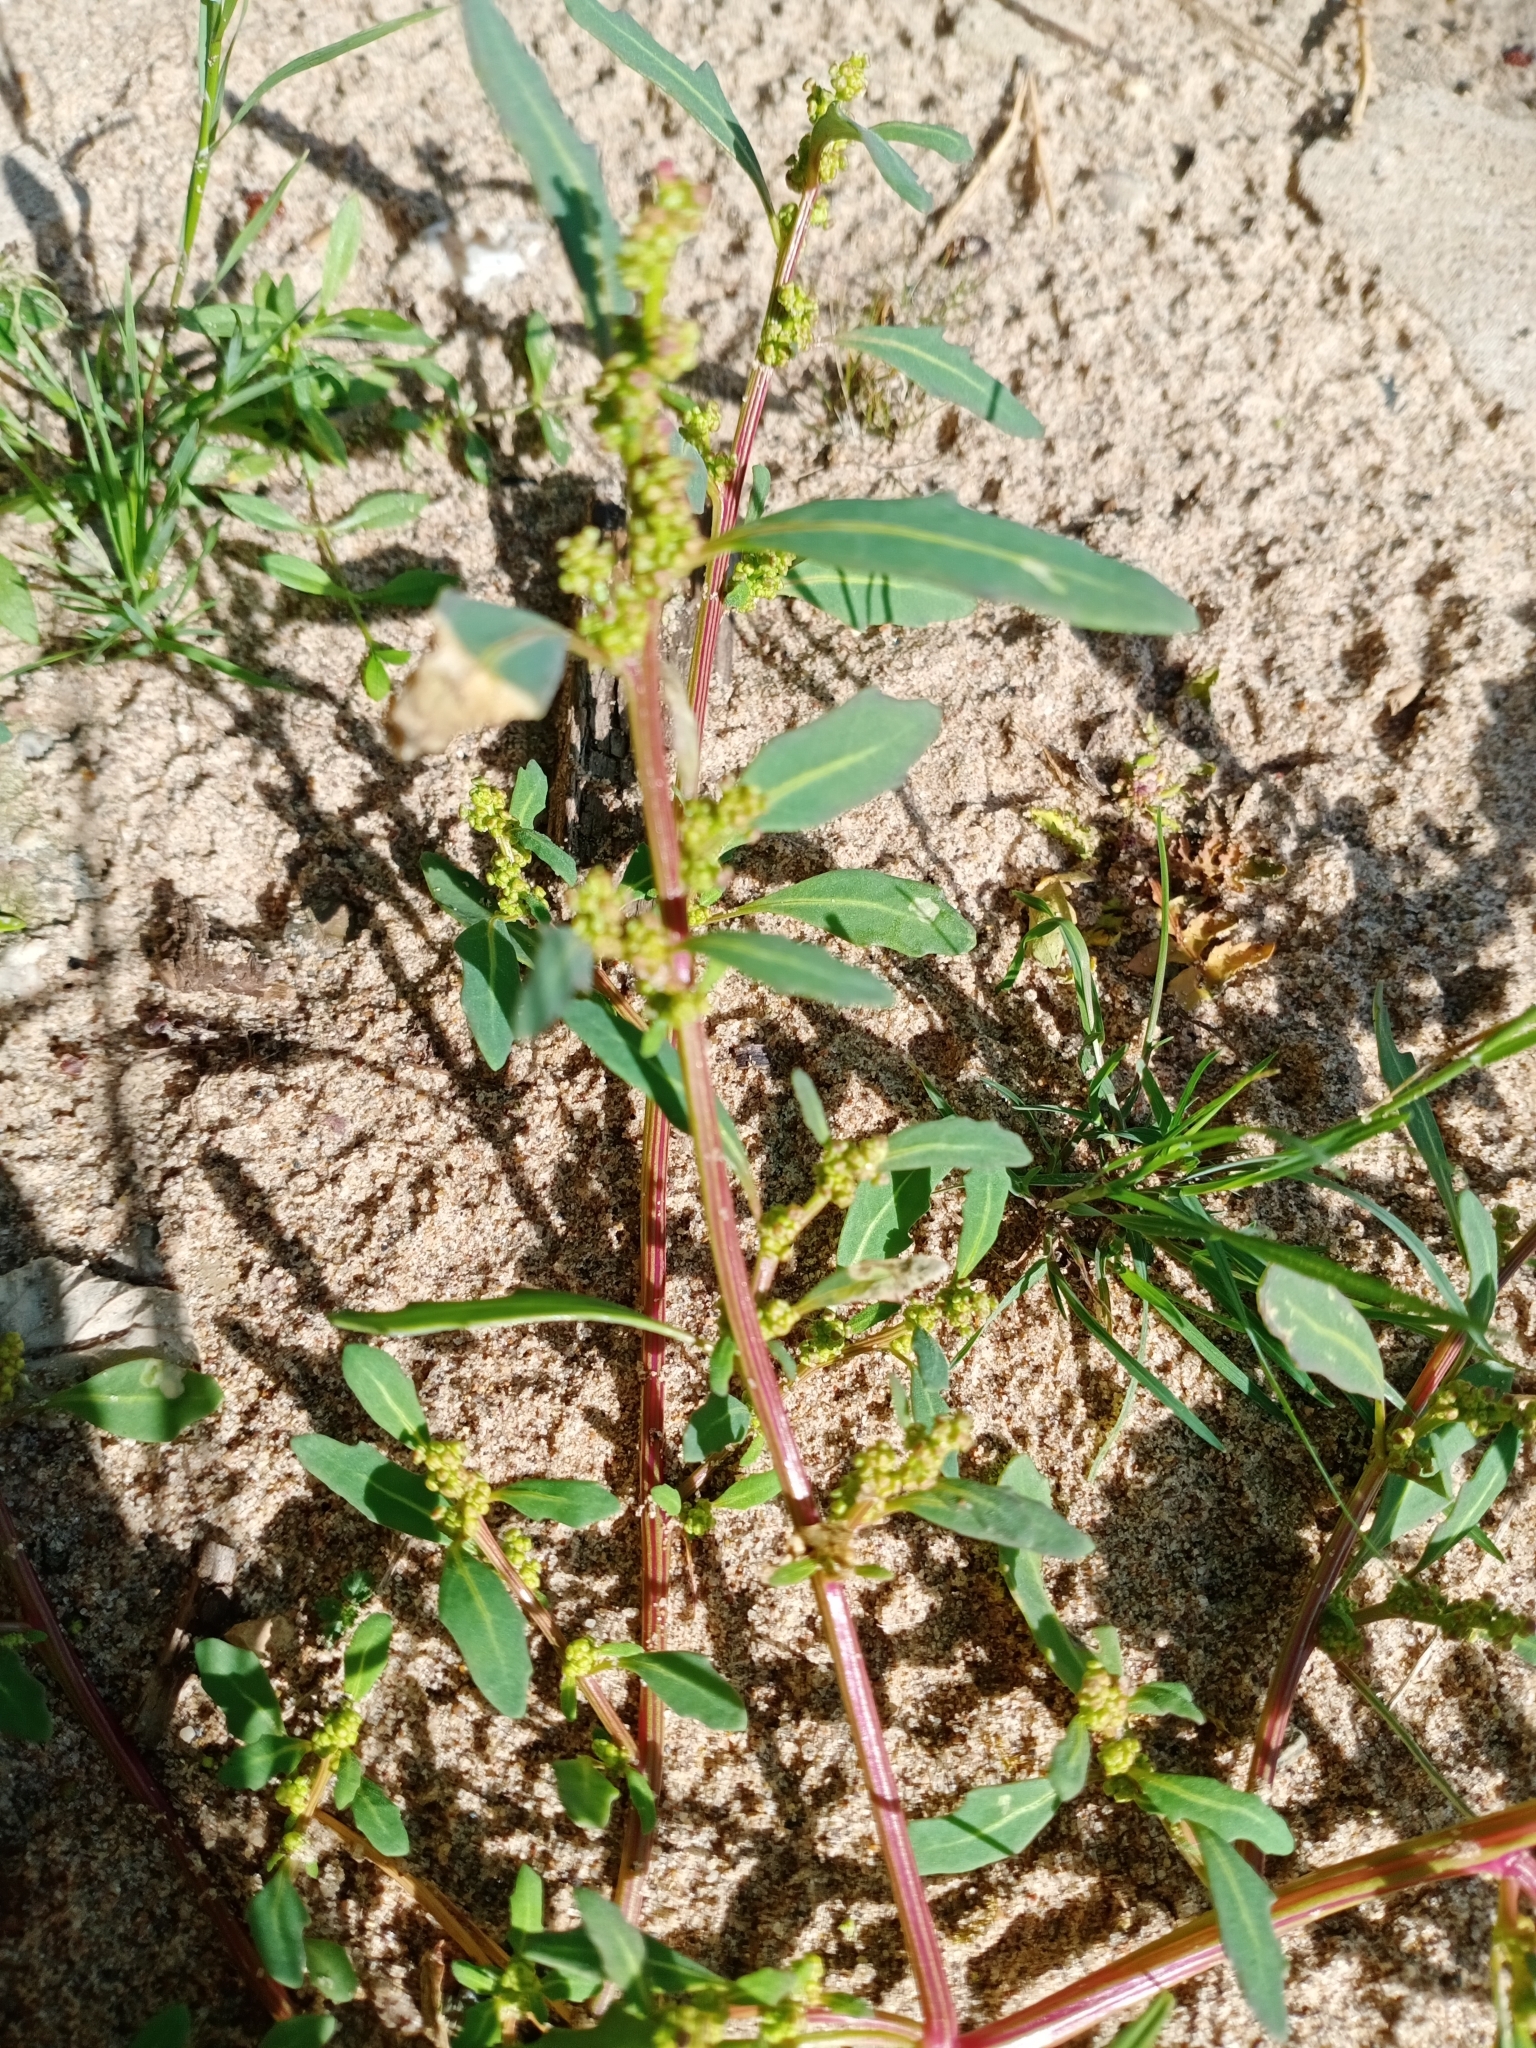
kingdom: Plantae
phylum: Tracheophyta
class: Magnoliopsida
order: Caryophyllales
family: Amaranthaceae
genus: Oxybasis
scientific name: Oxybasis glauca
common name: Glaucous goosefoot
